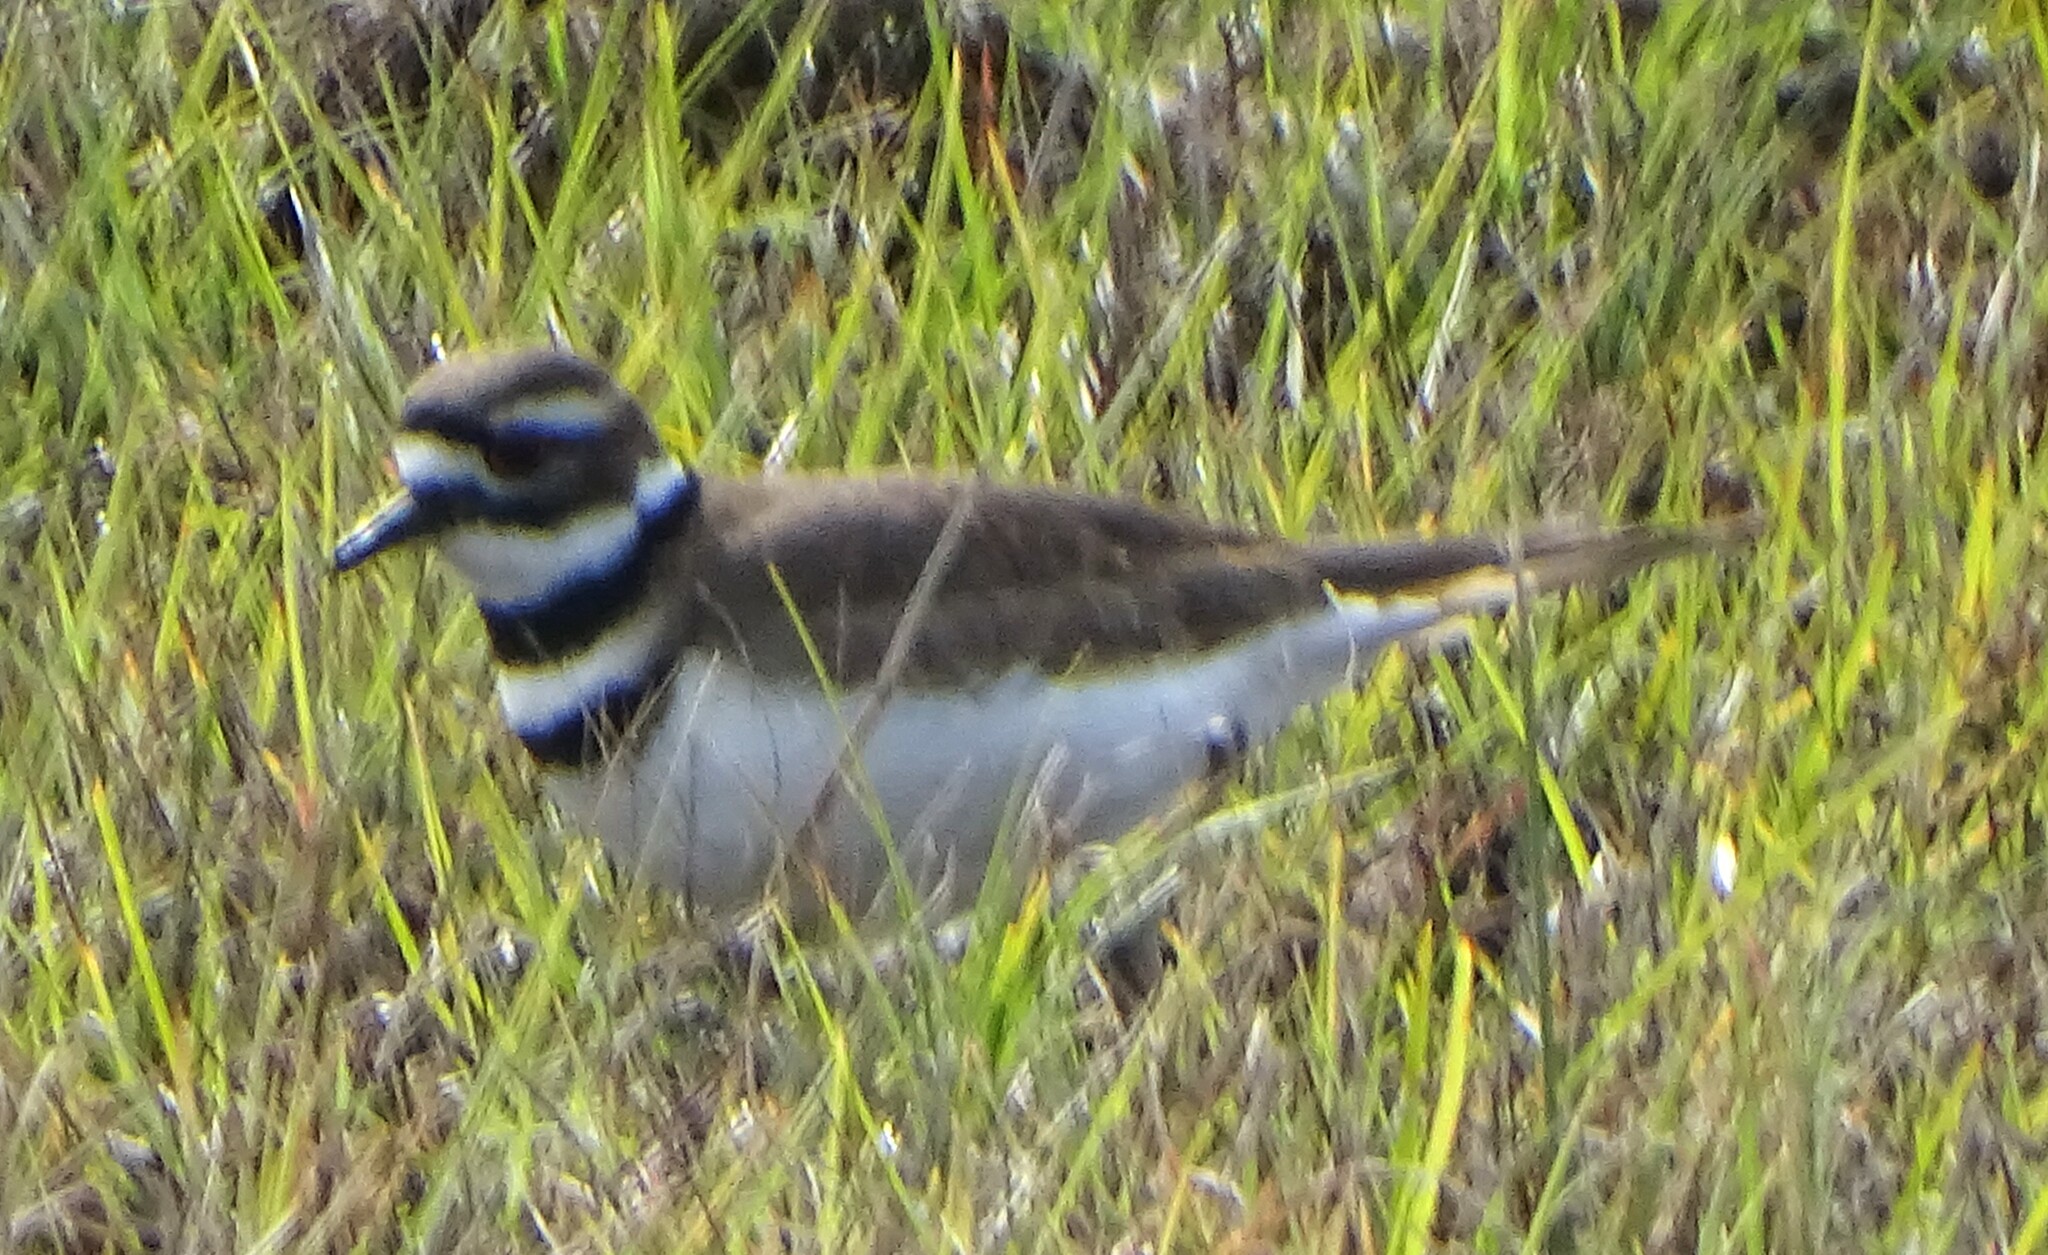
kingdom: Animalia
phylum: Chordata
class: Aves
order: Charadriiformes
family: Charadriidae
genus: Charadrius
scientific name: Charadrius vociferus
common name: Killdeer
